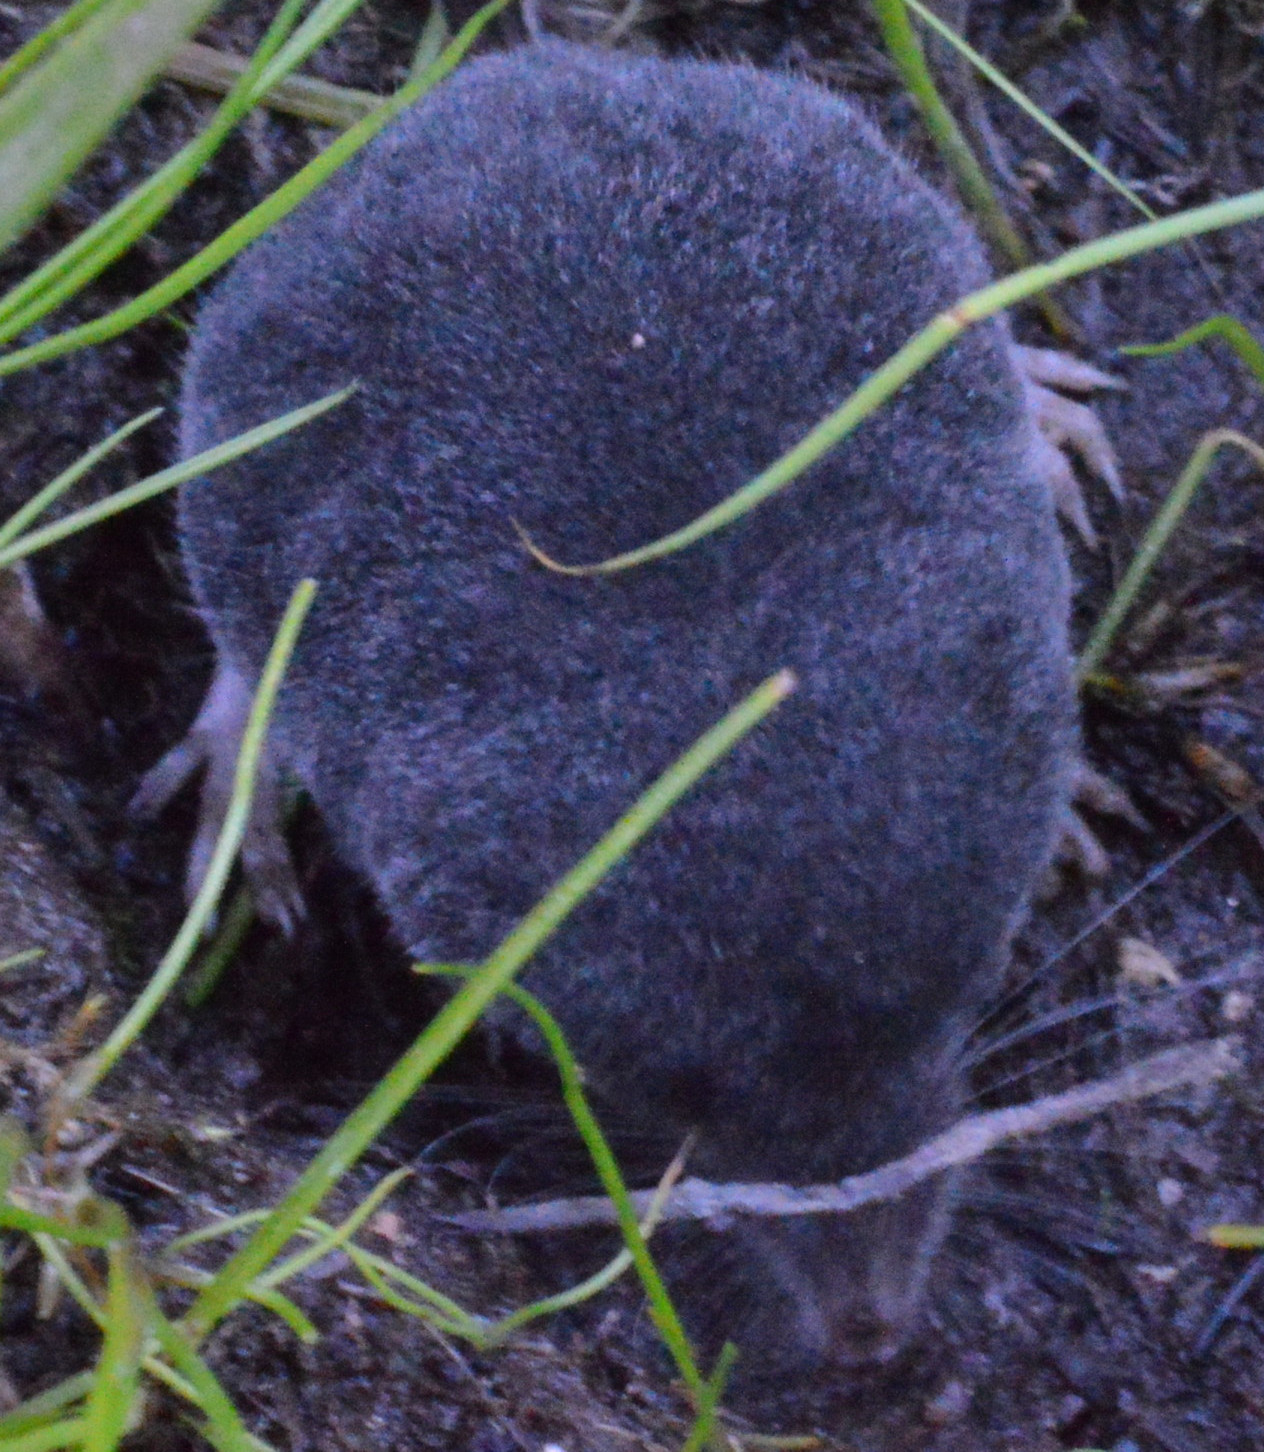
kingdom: Animalia
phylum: Chordata
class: Mammalia
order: Soricomorpha
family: Talpidae
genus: Talpa
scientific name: Talpa europaea
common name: European mole
